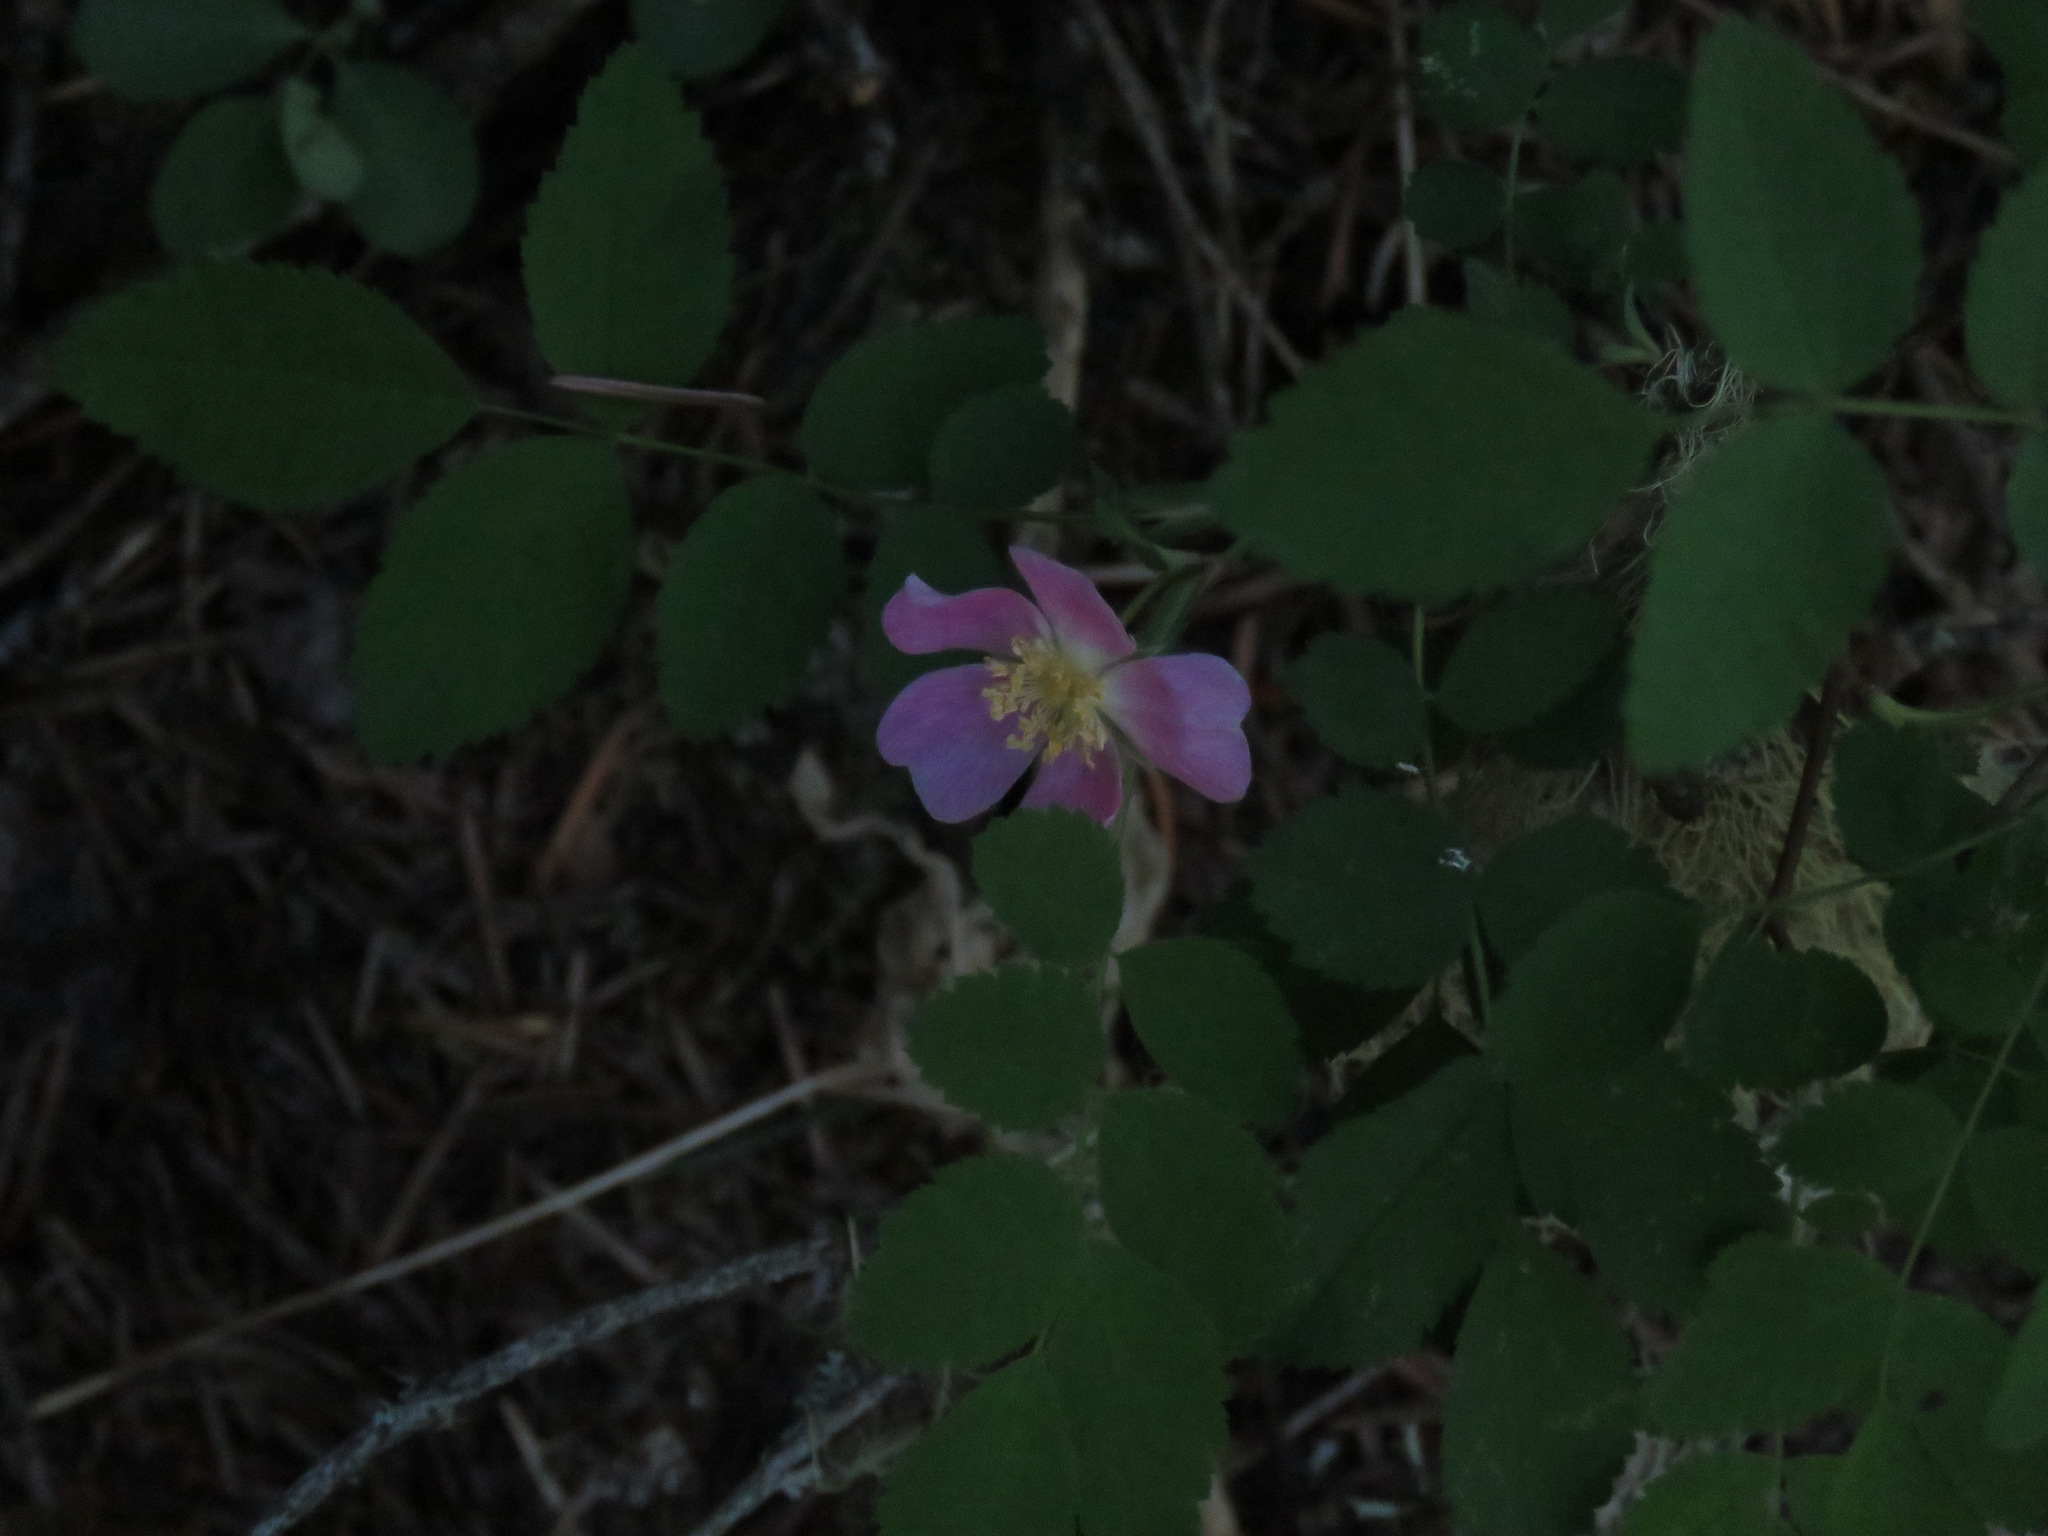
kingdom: Plantae
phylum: Tracheophyta
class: Magnoliopsida
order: Rosales
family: Rosaceae
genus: Rosa
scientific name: Rosa
